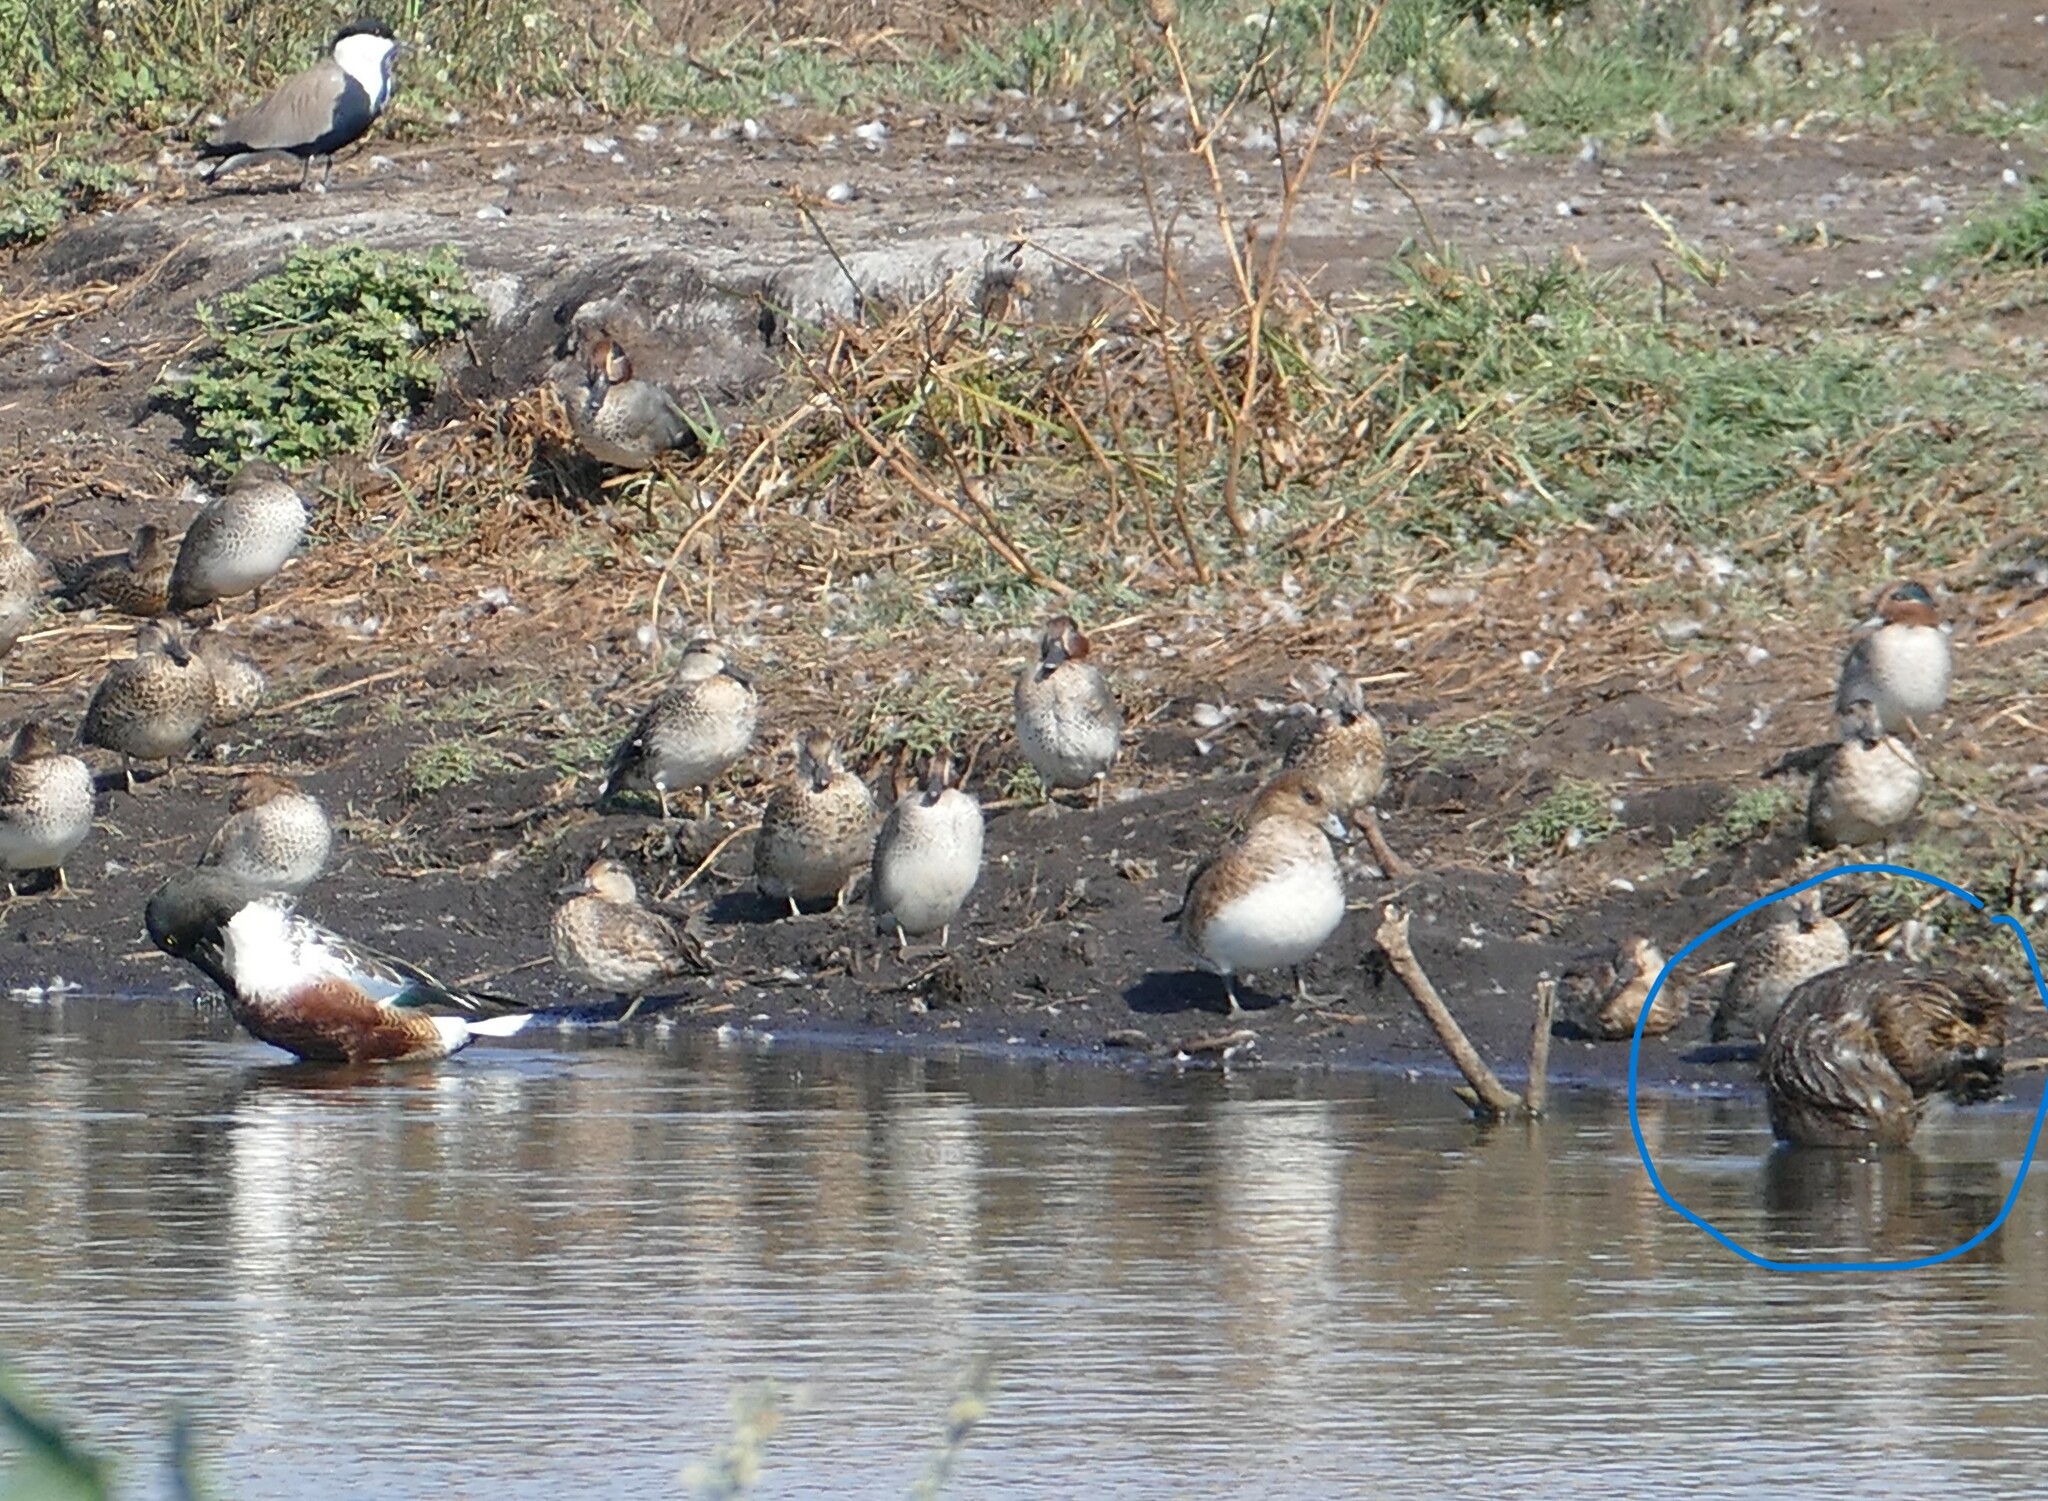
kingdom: Animalia
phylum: Chordata
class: Mammalia
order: Rodentia
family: Myocastoridae
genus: Myocastor
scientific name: Myocastor coypus
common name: Coypu
